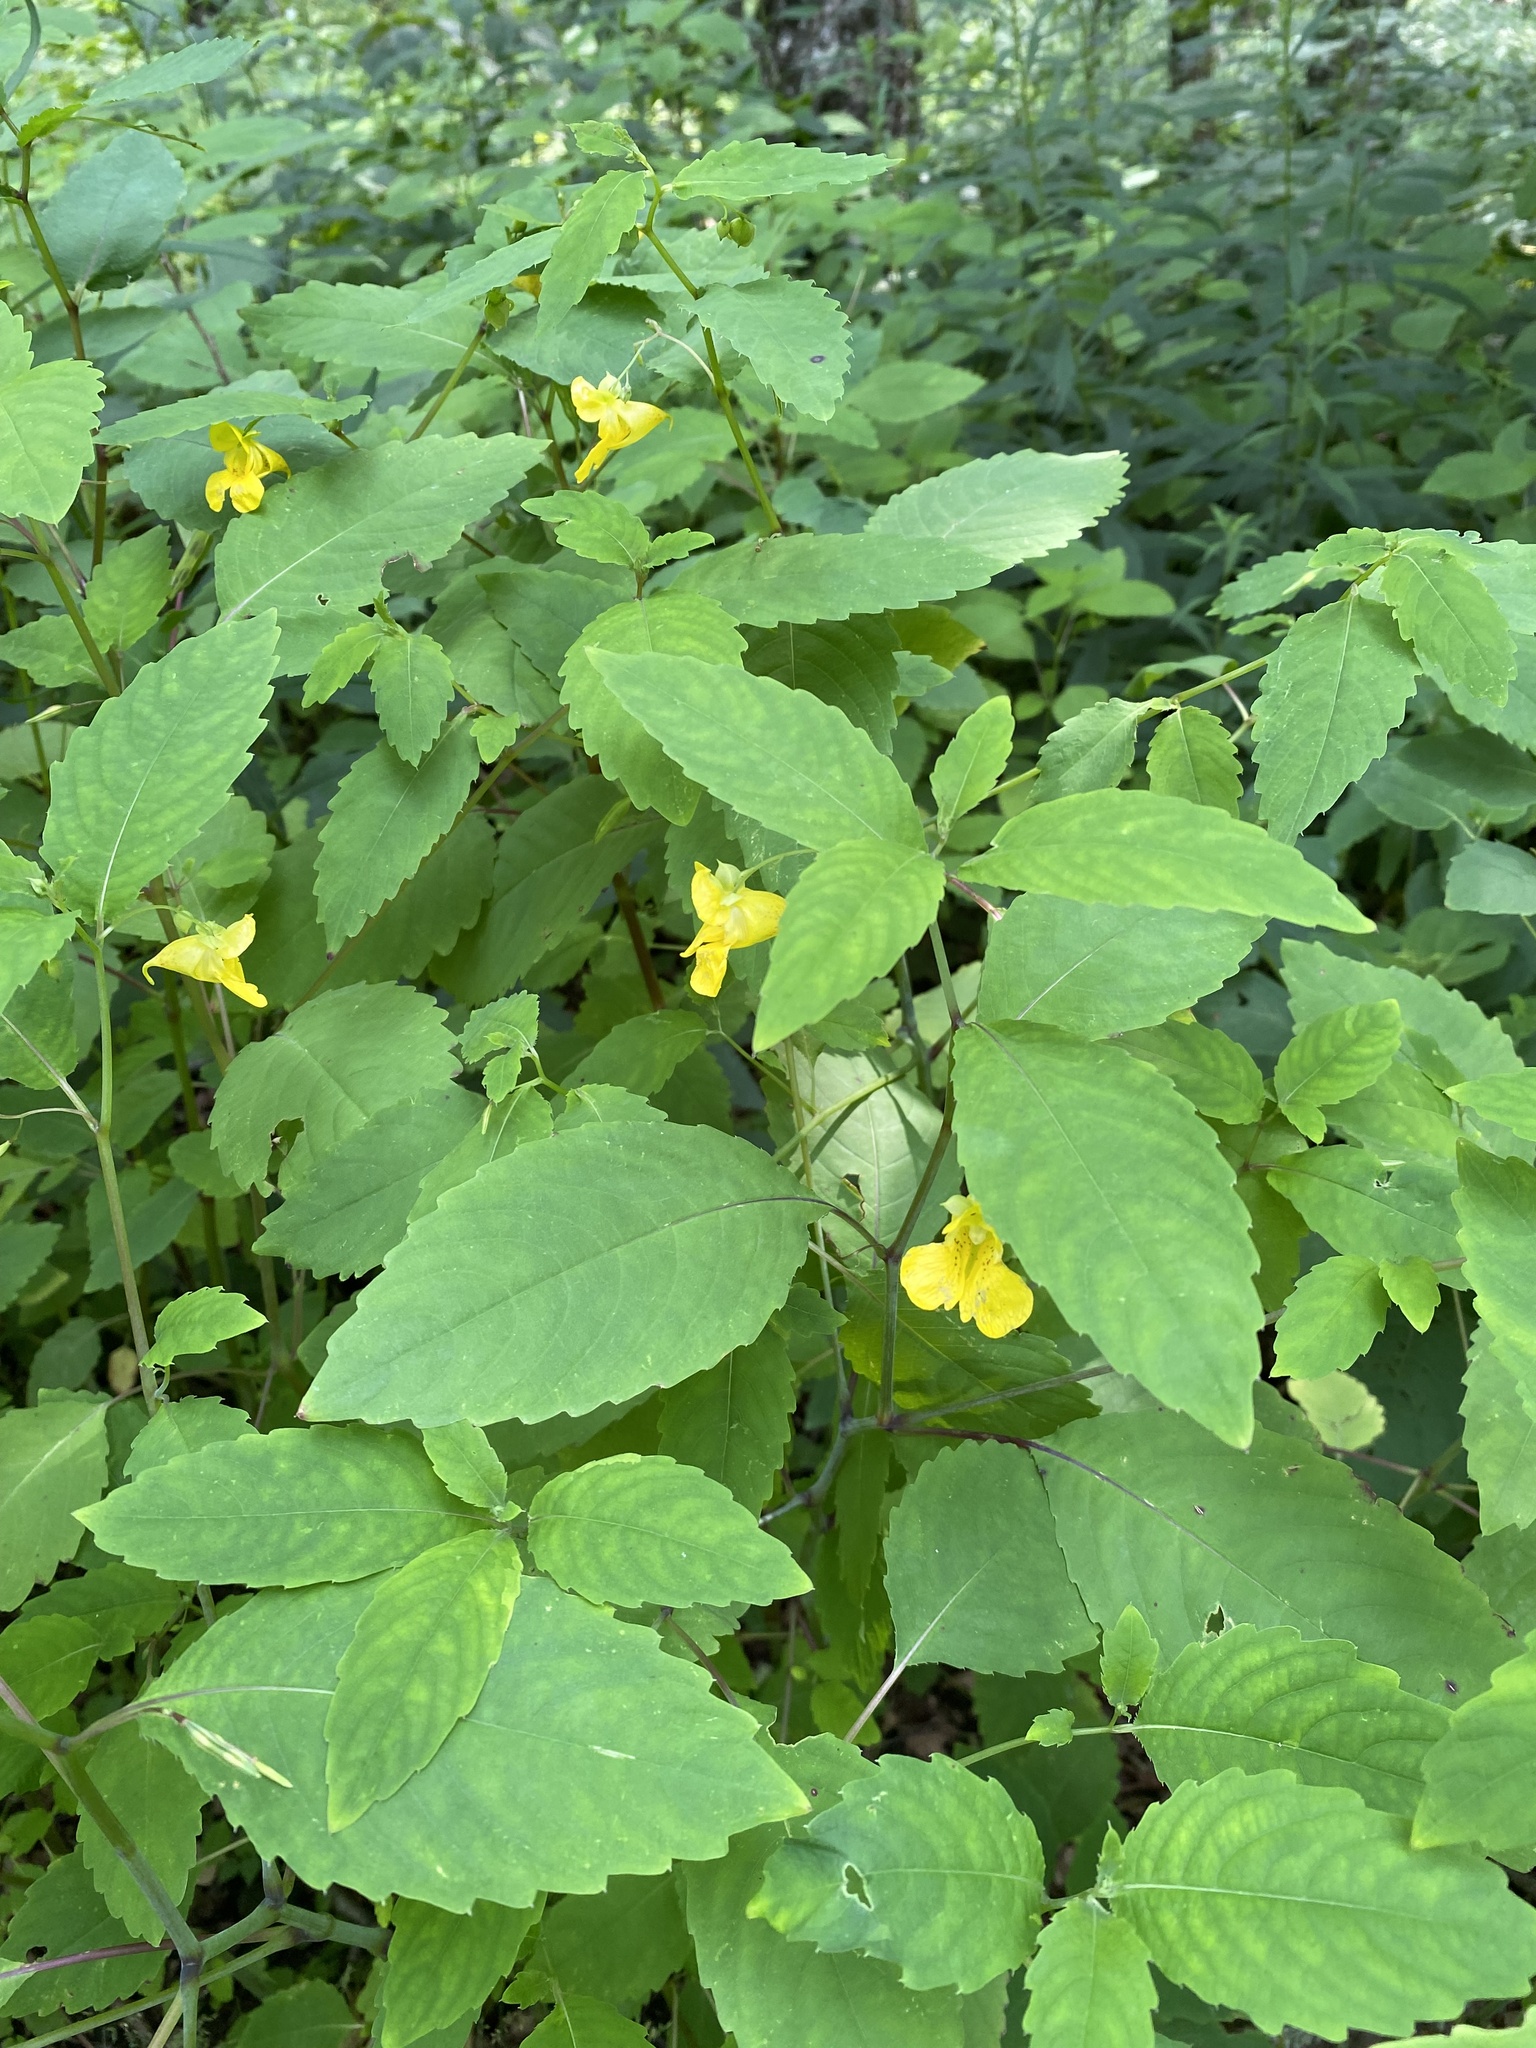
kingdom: Plantae
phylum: Tracheophyta
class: Magnoliopsida
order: Ericales
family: Balsaminaceae
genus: Impatiens
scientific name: Impatiens pallida
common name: Pale snapweed
